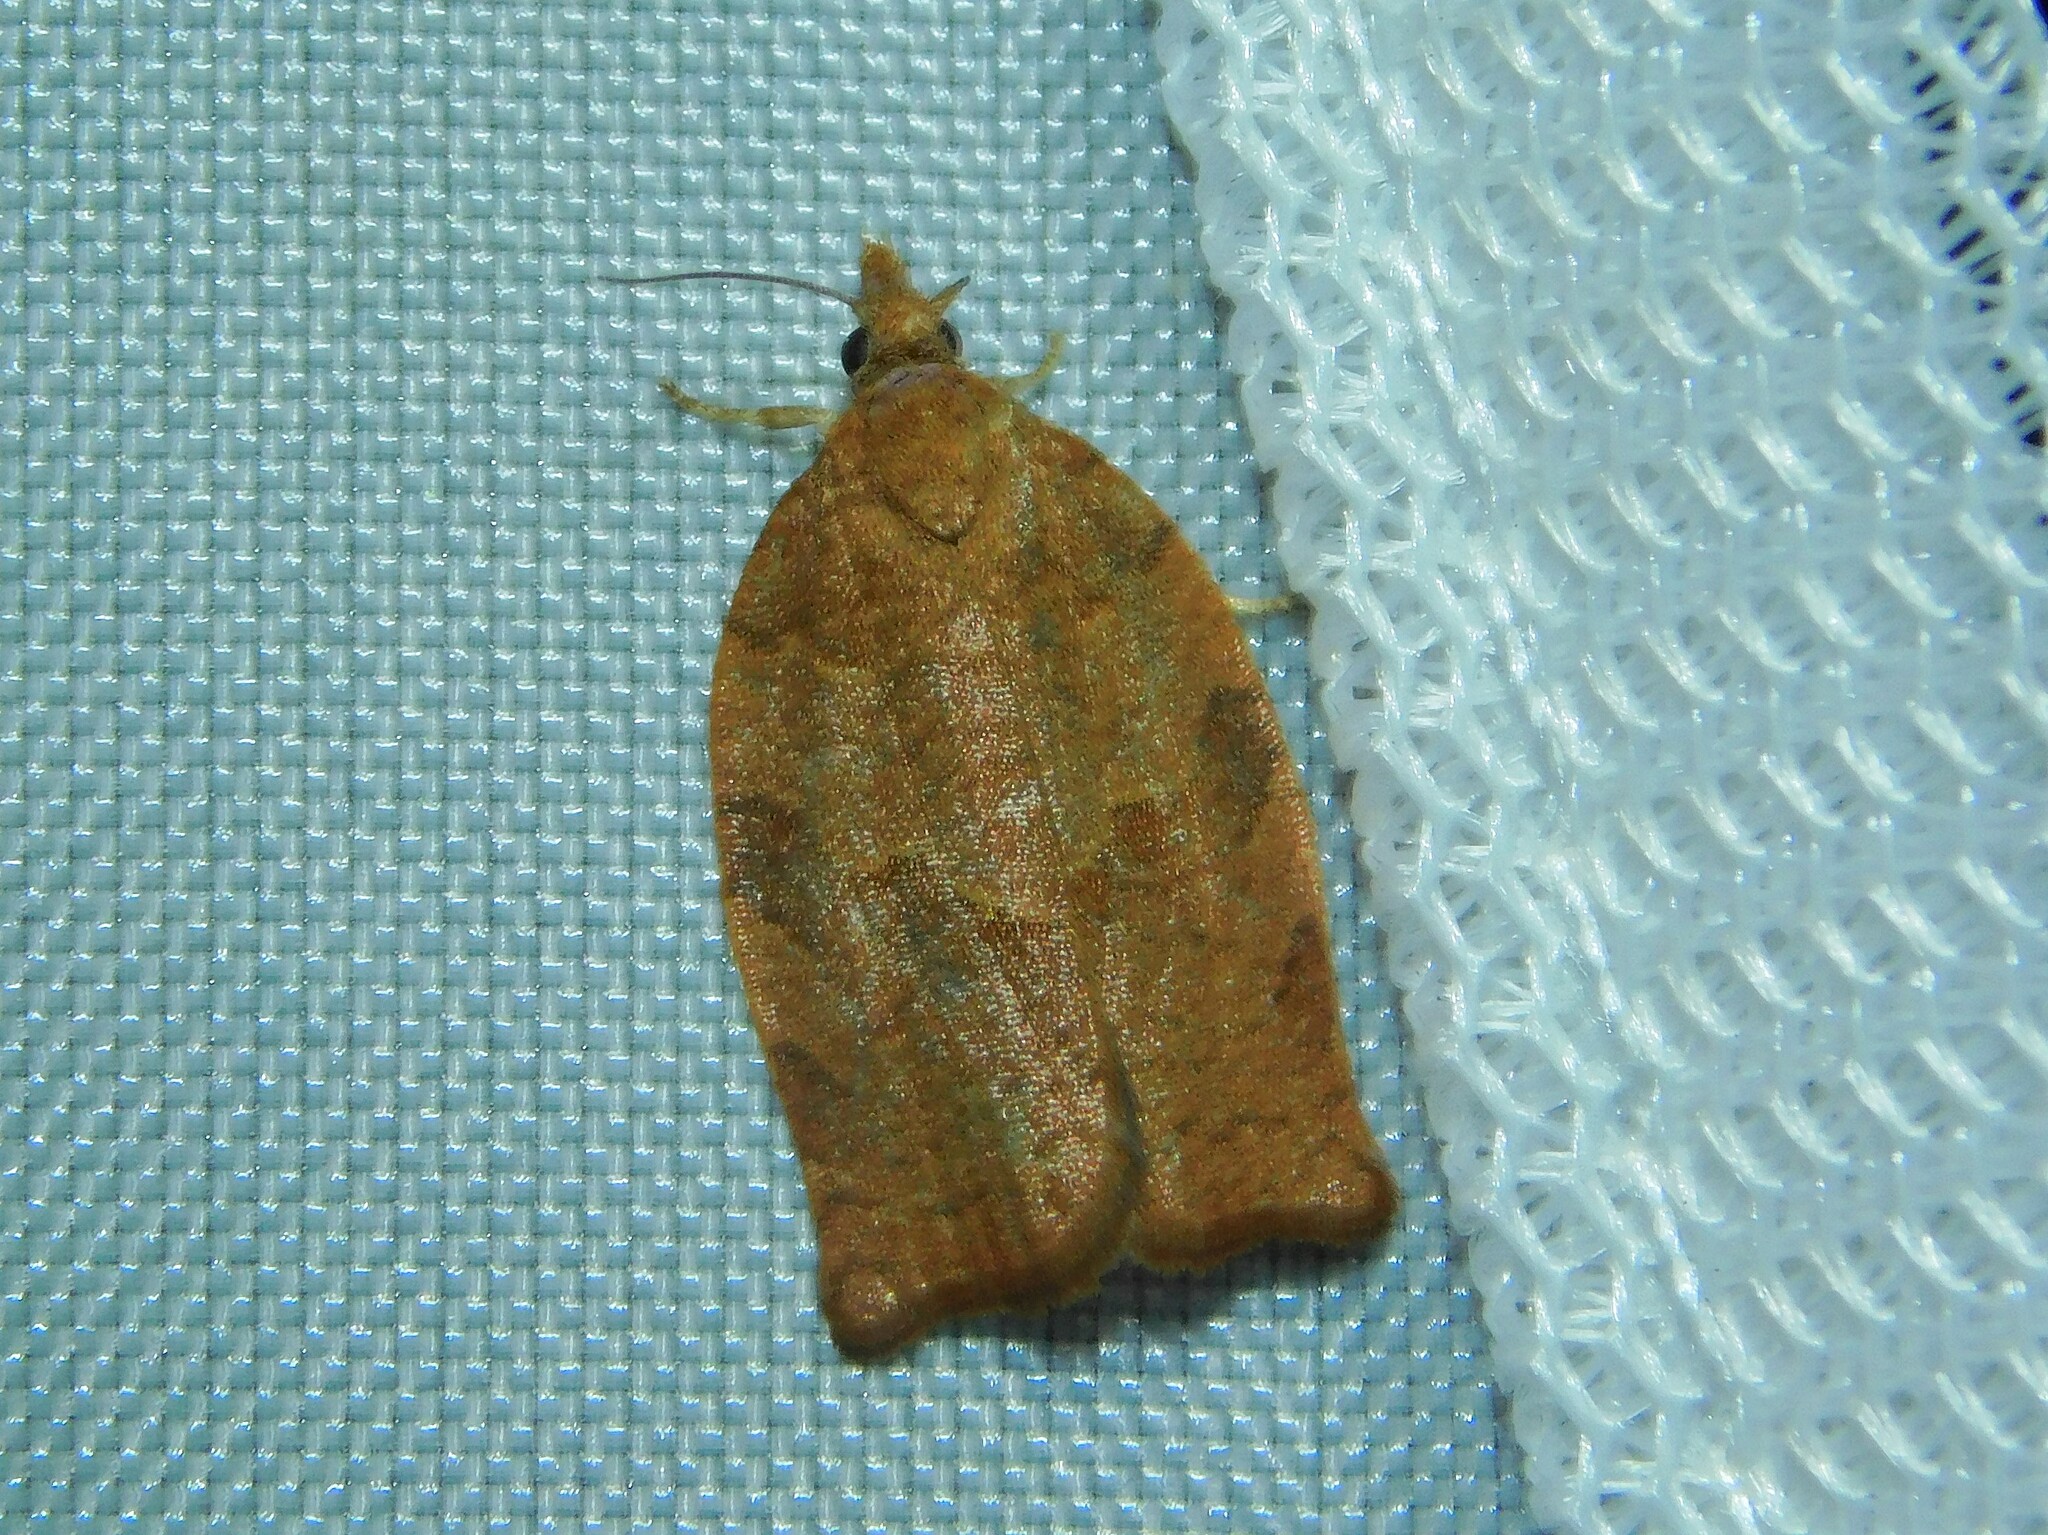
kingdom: Animalia
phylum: Arthropoda
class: Insecta
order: Lepidoptera
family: Tortricidae
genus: Pandemis
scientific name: Pandemis heparana
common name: Dark fruit-tree tortrix
